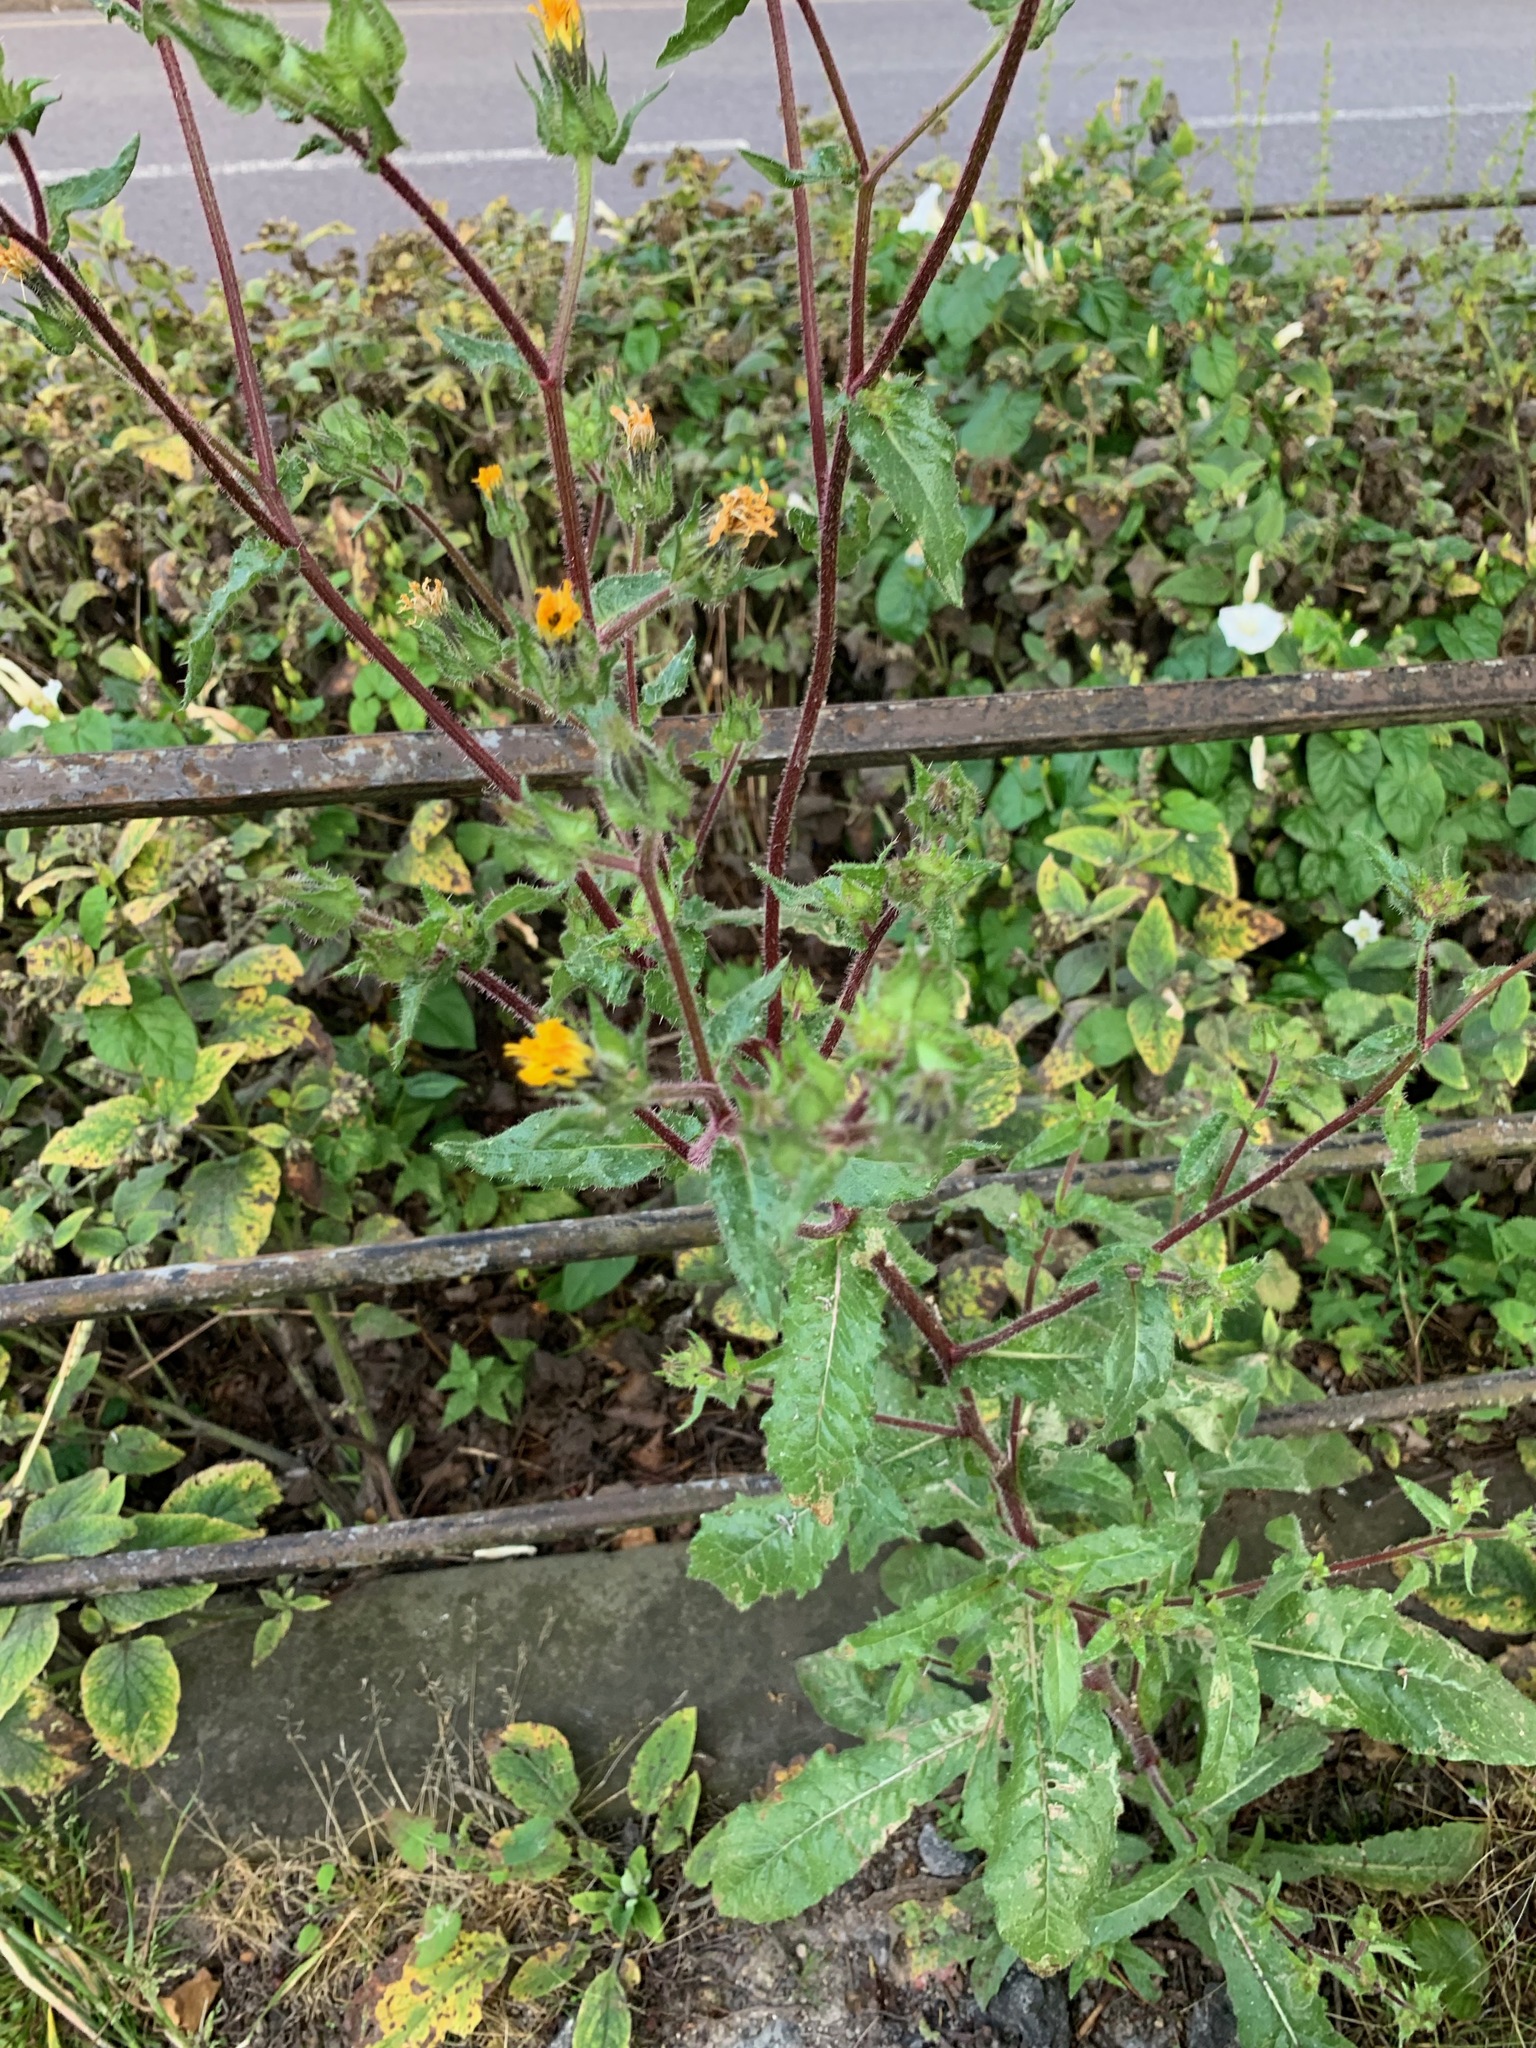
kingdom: Plantae
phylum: Tracheophyta
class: Magnoliopsida
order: Asterales
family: Asteraceae
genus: Helminthotheca
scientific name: Helminthotheca echioides
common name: Ox-tongue
